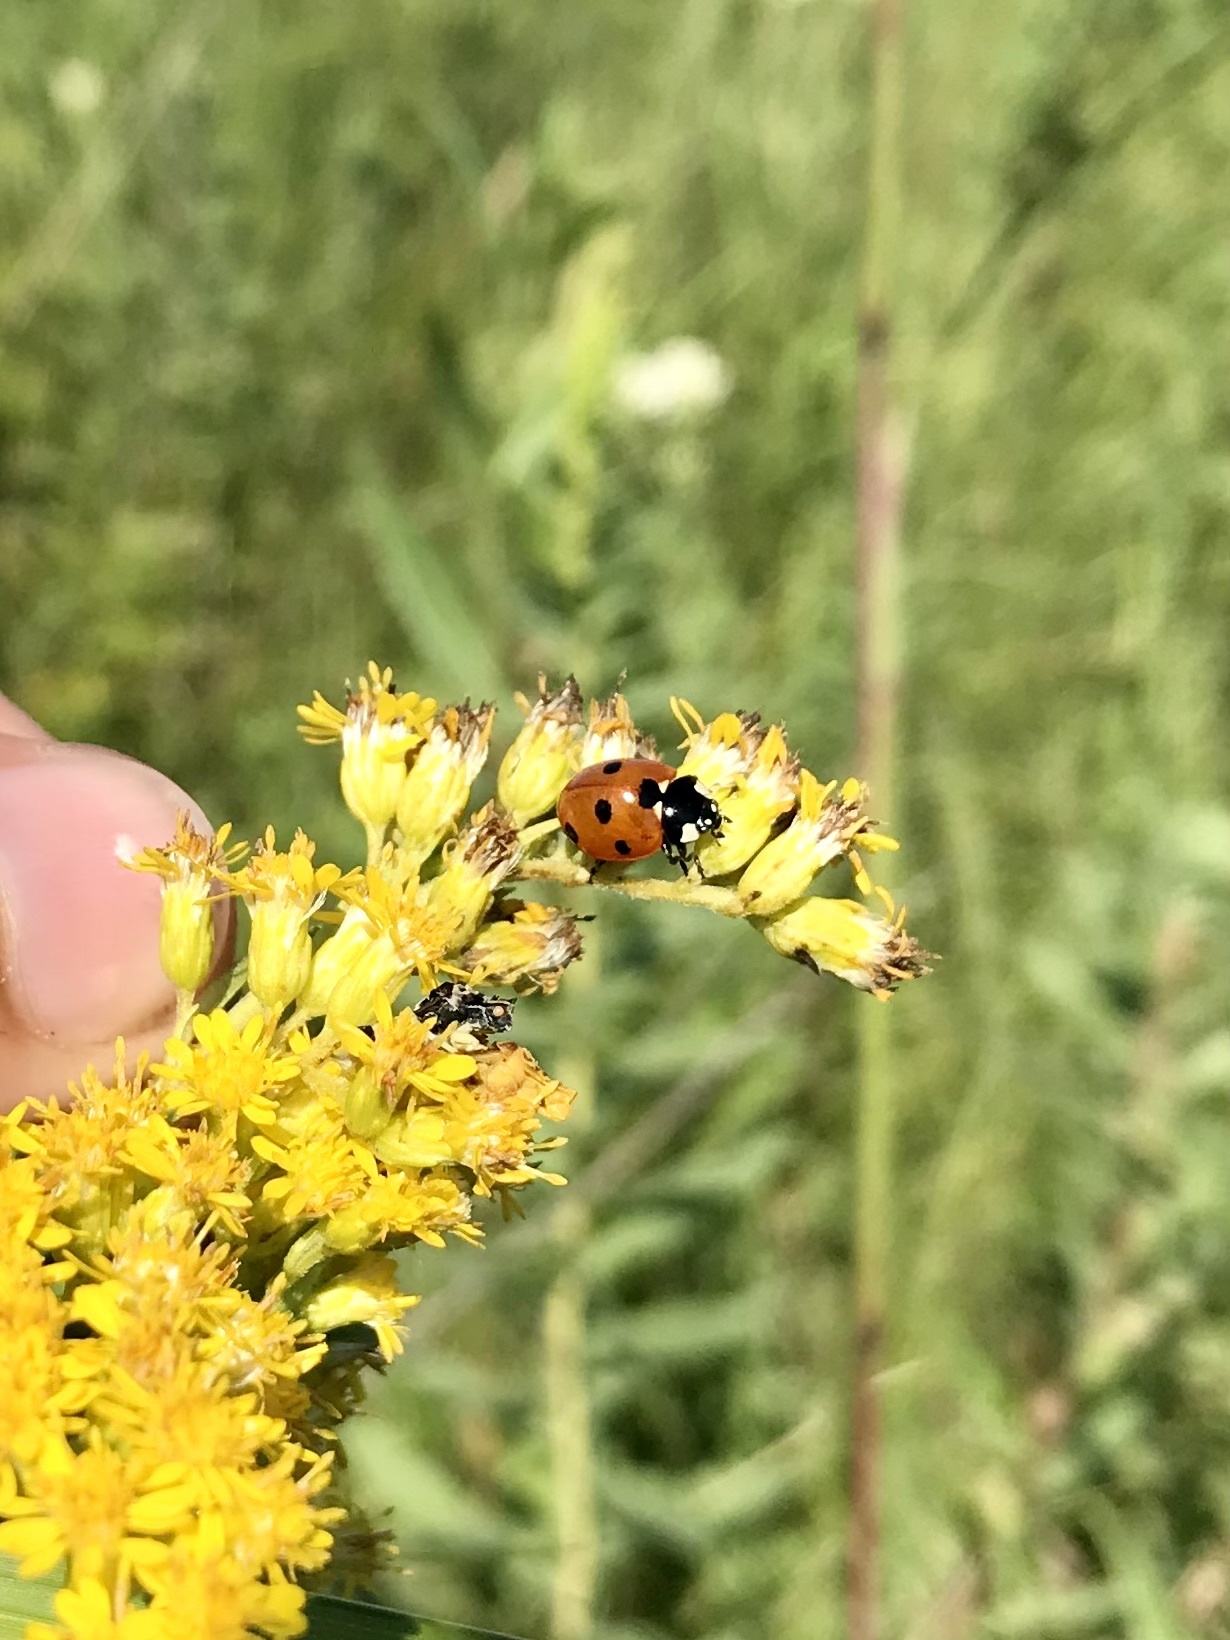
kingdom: Animalia
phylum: Arthropoda
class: Insecta
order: Coleoptera
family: Coccinellidae
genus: Coccinella
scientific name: Coccinella septempunctata
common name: Sevenspotted lady beetle
